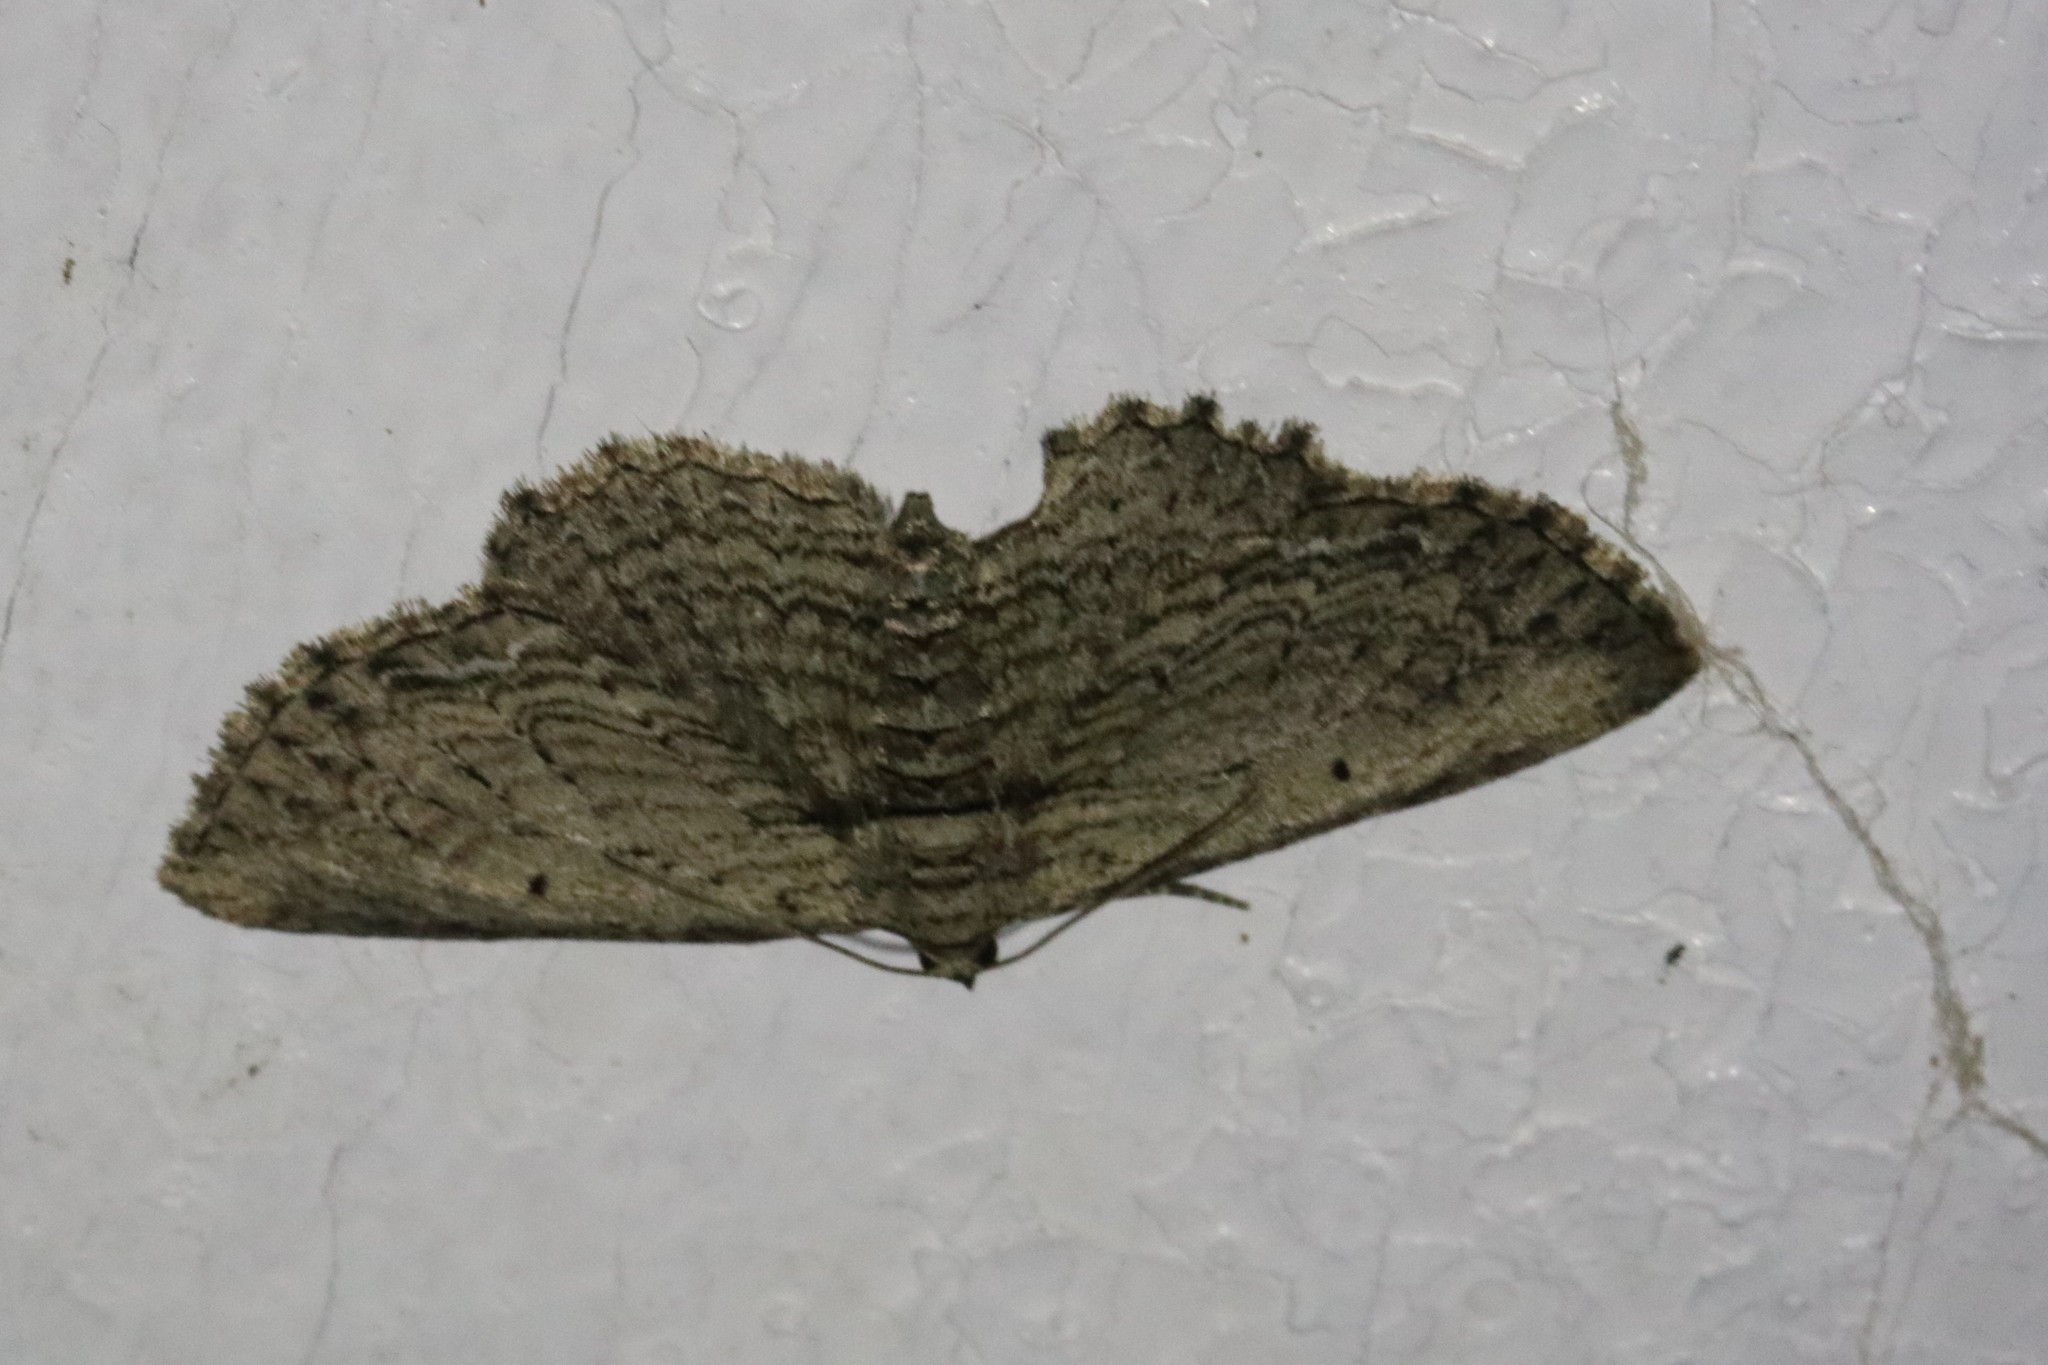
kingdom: Animalia
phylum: Arthropoda
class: Insecta
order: Lepidoptera
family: Geometridae
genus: Horisme
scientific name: Horisme intestinata
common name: Brown bark carpet
